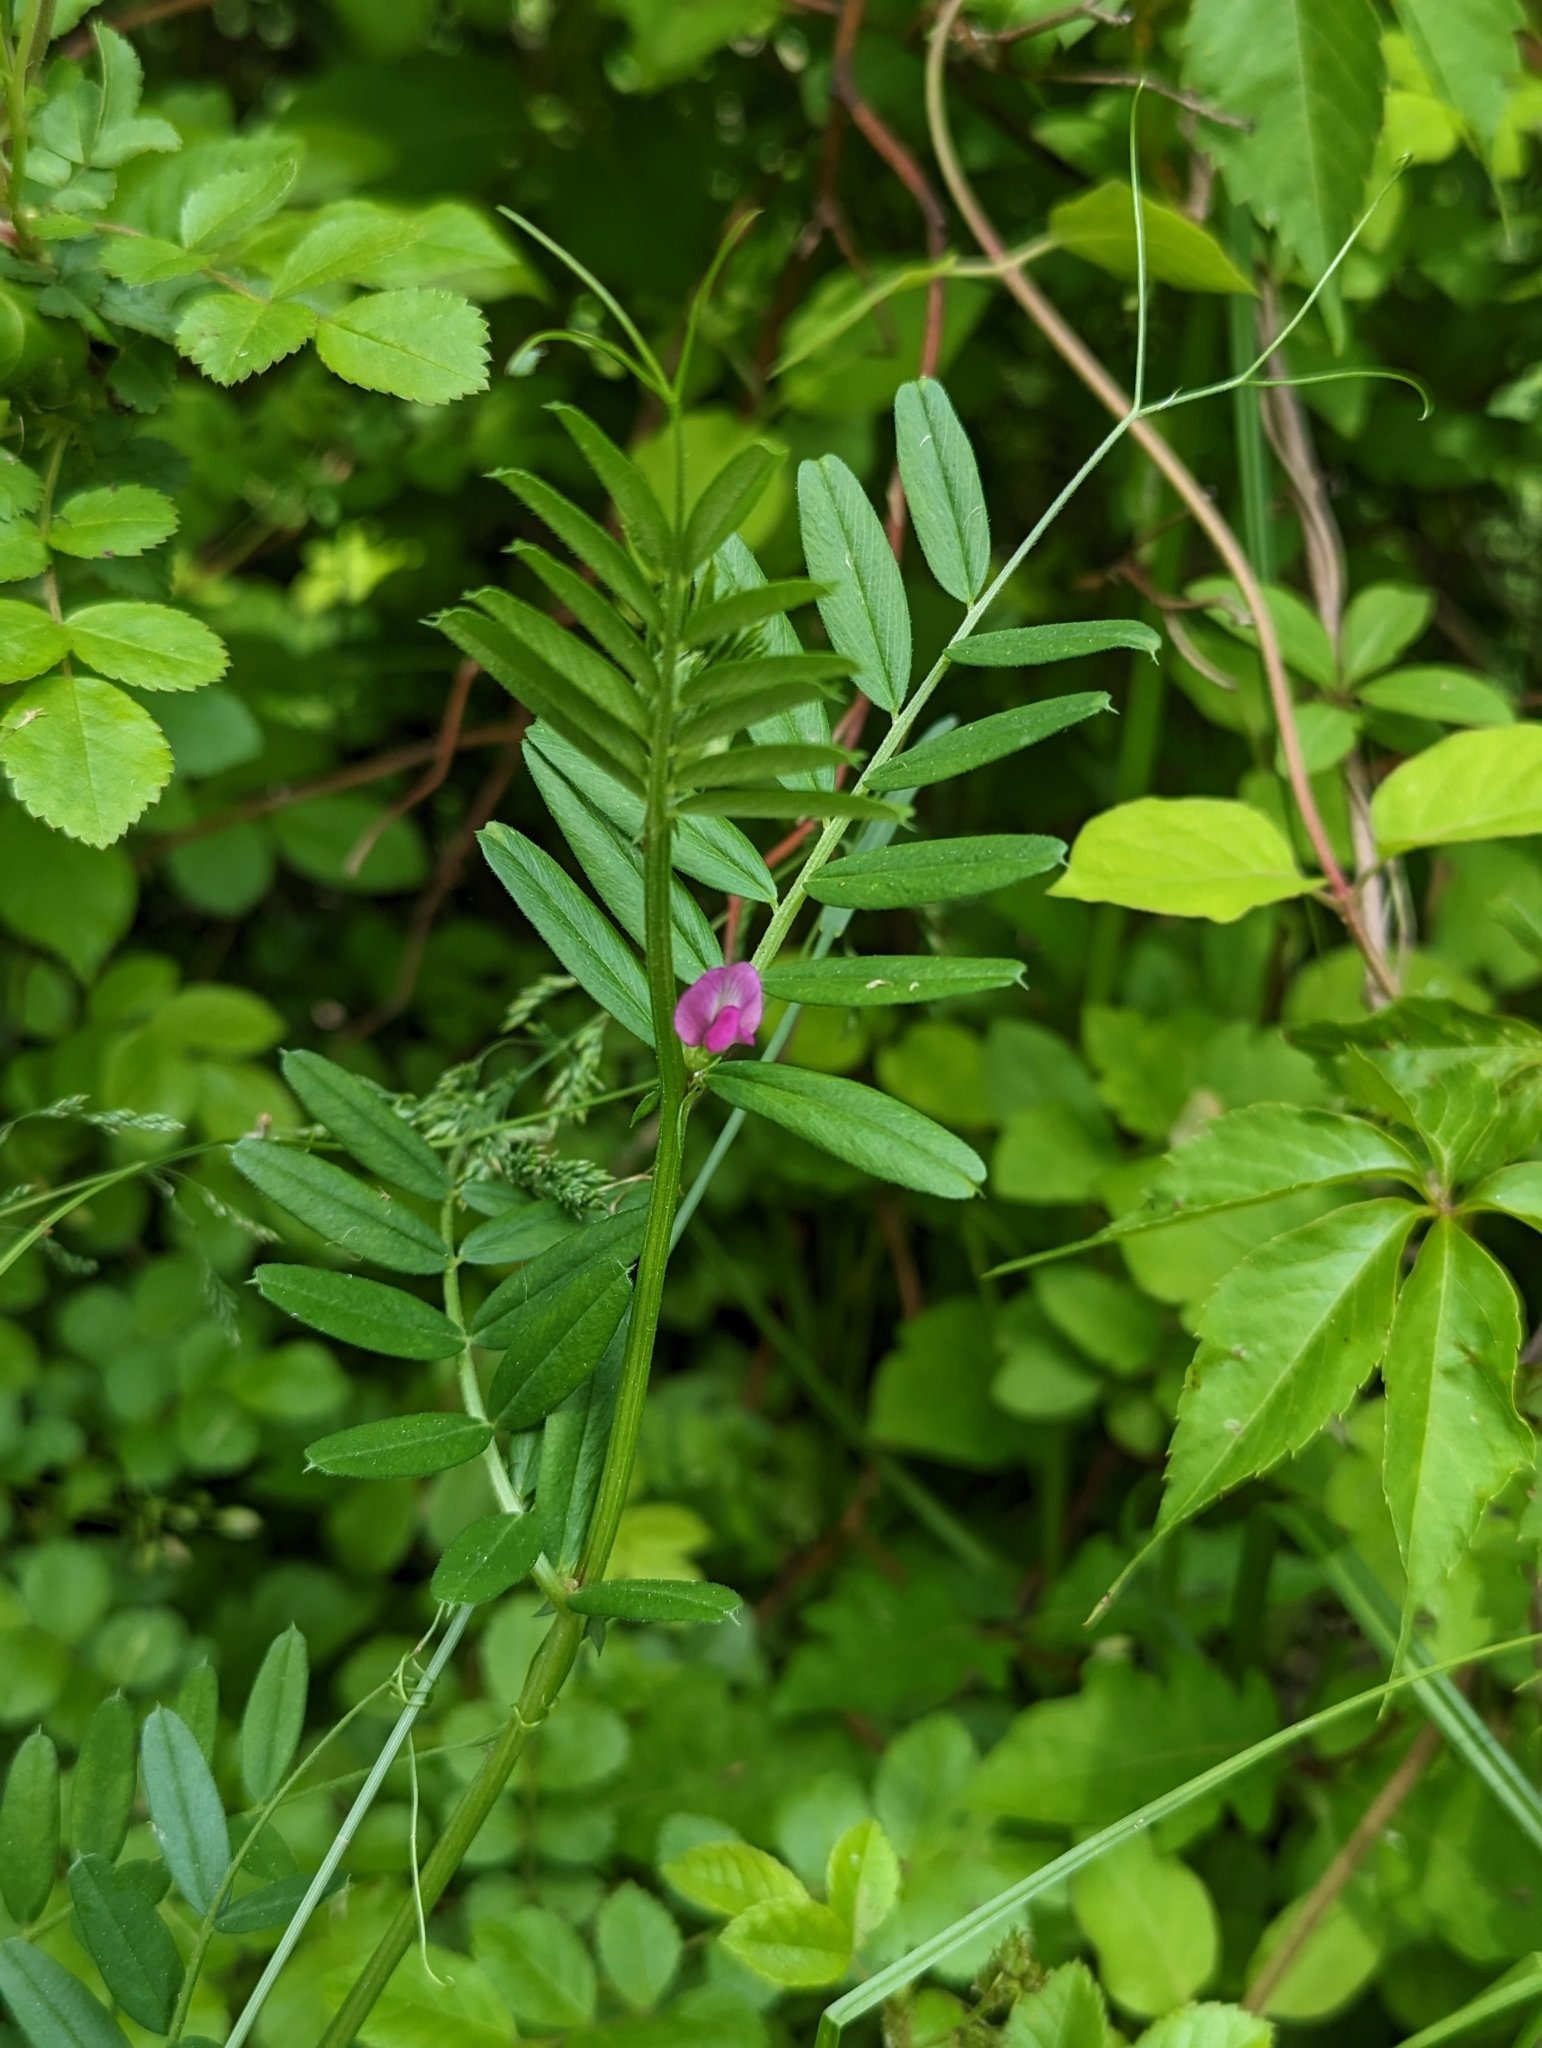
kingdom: Plantae
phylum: Tracheophyta
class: Magnoliopsida
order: Fabales
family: Fabaceae
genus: Vicia
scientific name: Vicia sativa
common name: Garden vetch
